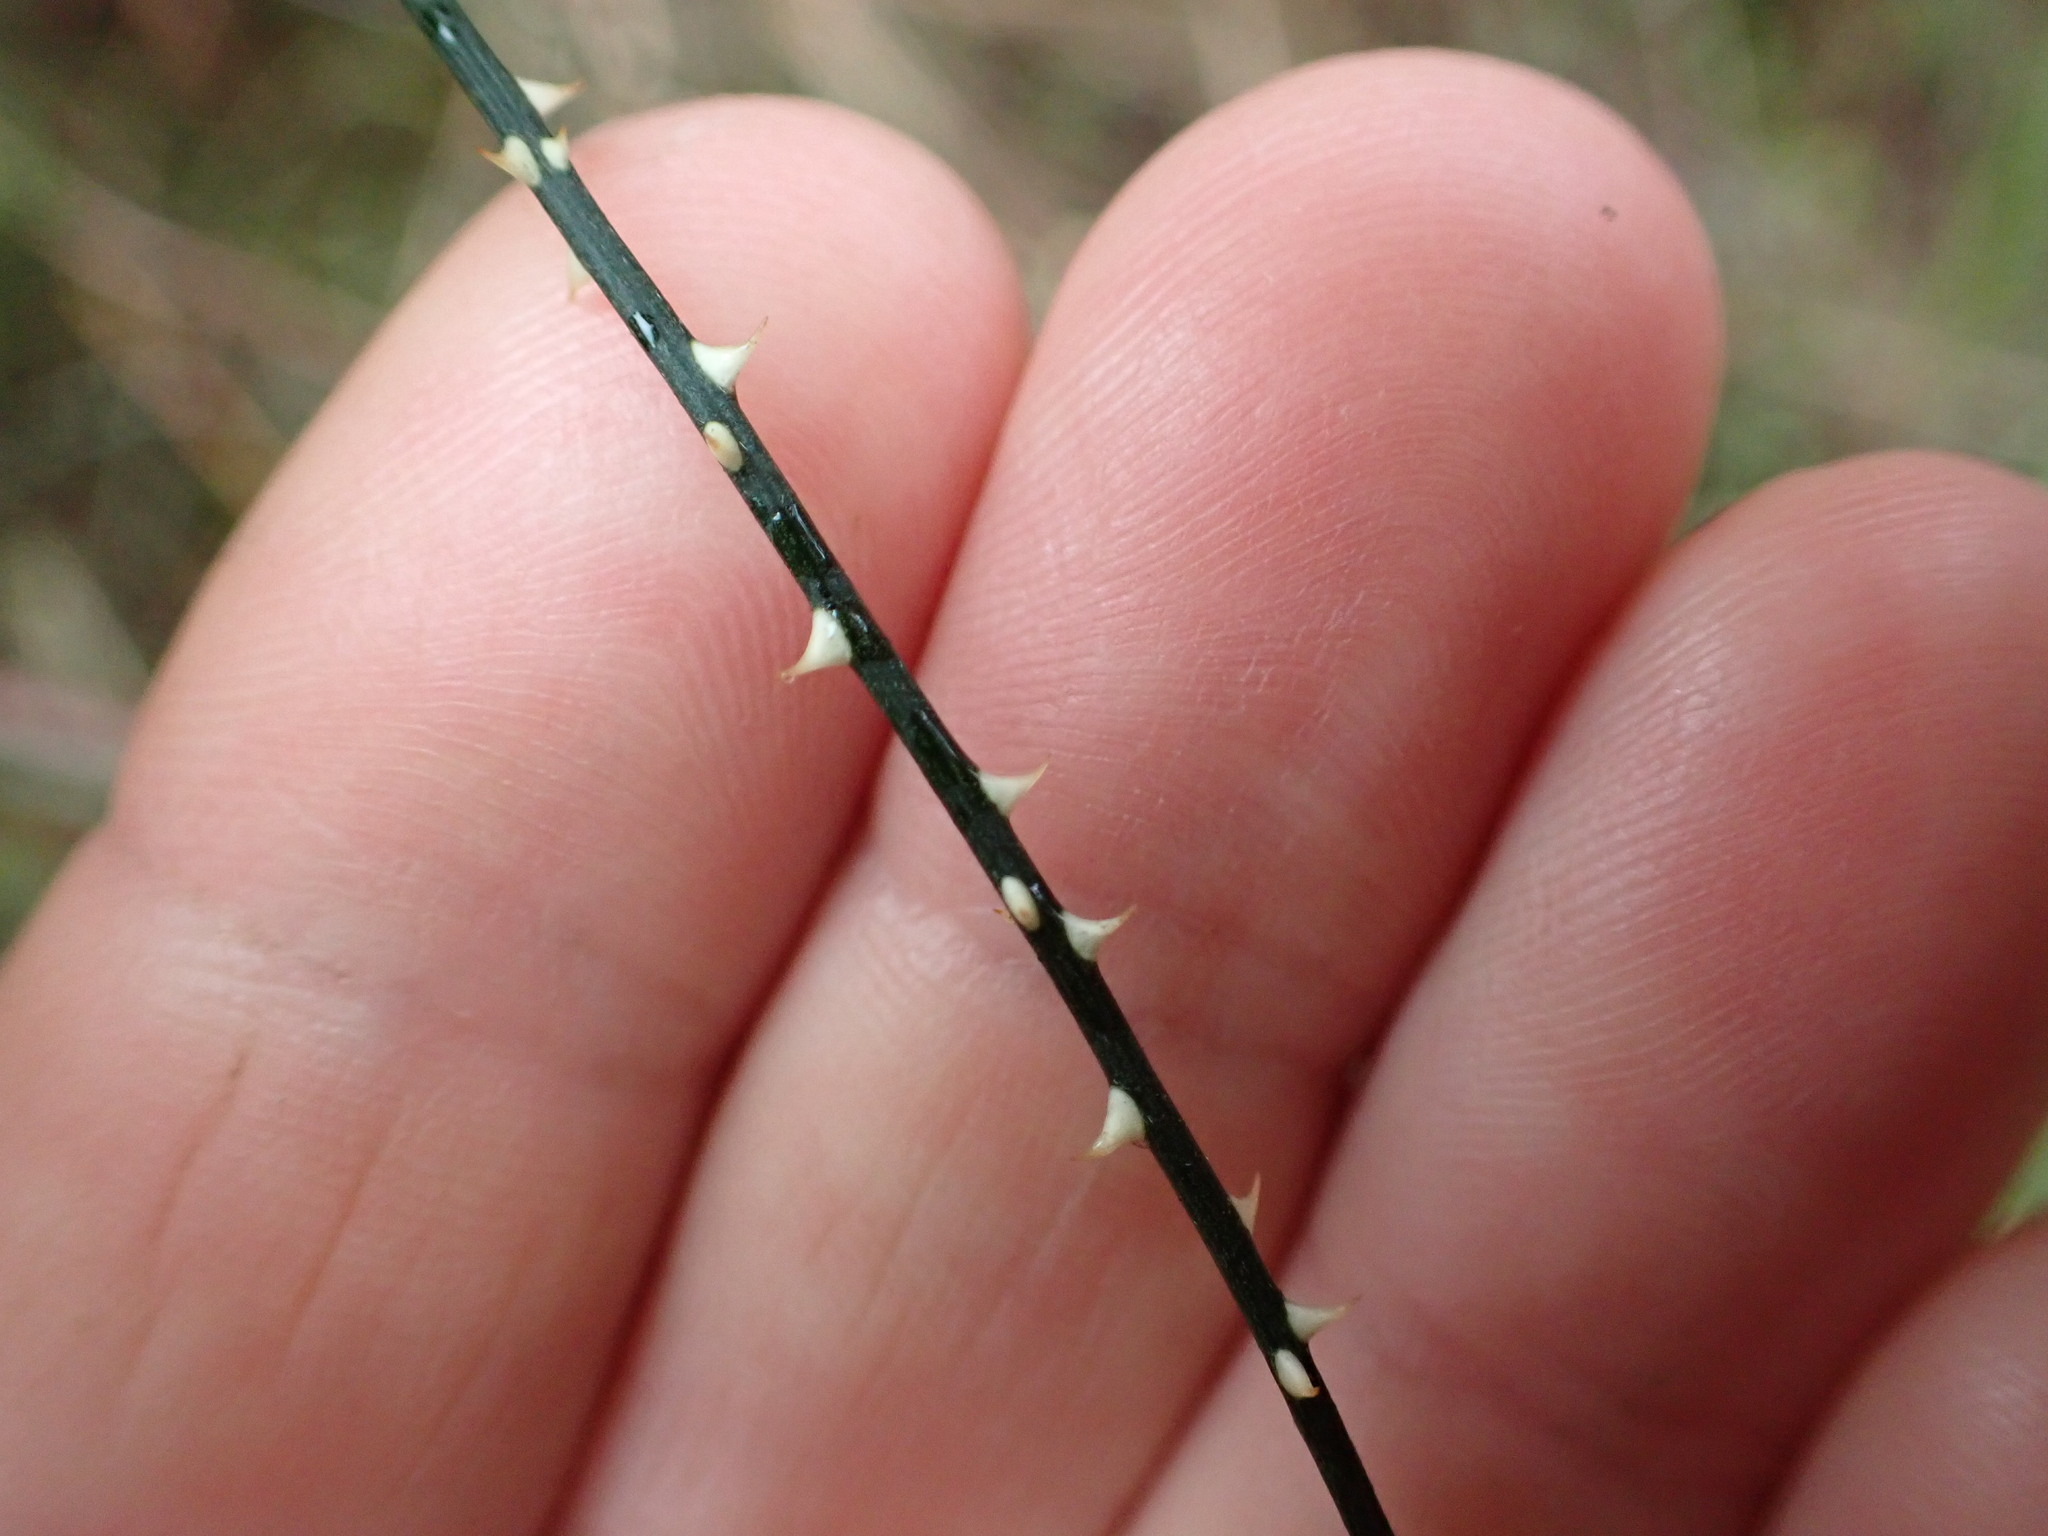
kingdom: Plantae
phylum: Tracheophyta
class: Magnoliopsida
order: Rosales
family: Rosaceae
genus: Rubus
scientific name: Rubus squarrosus
